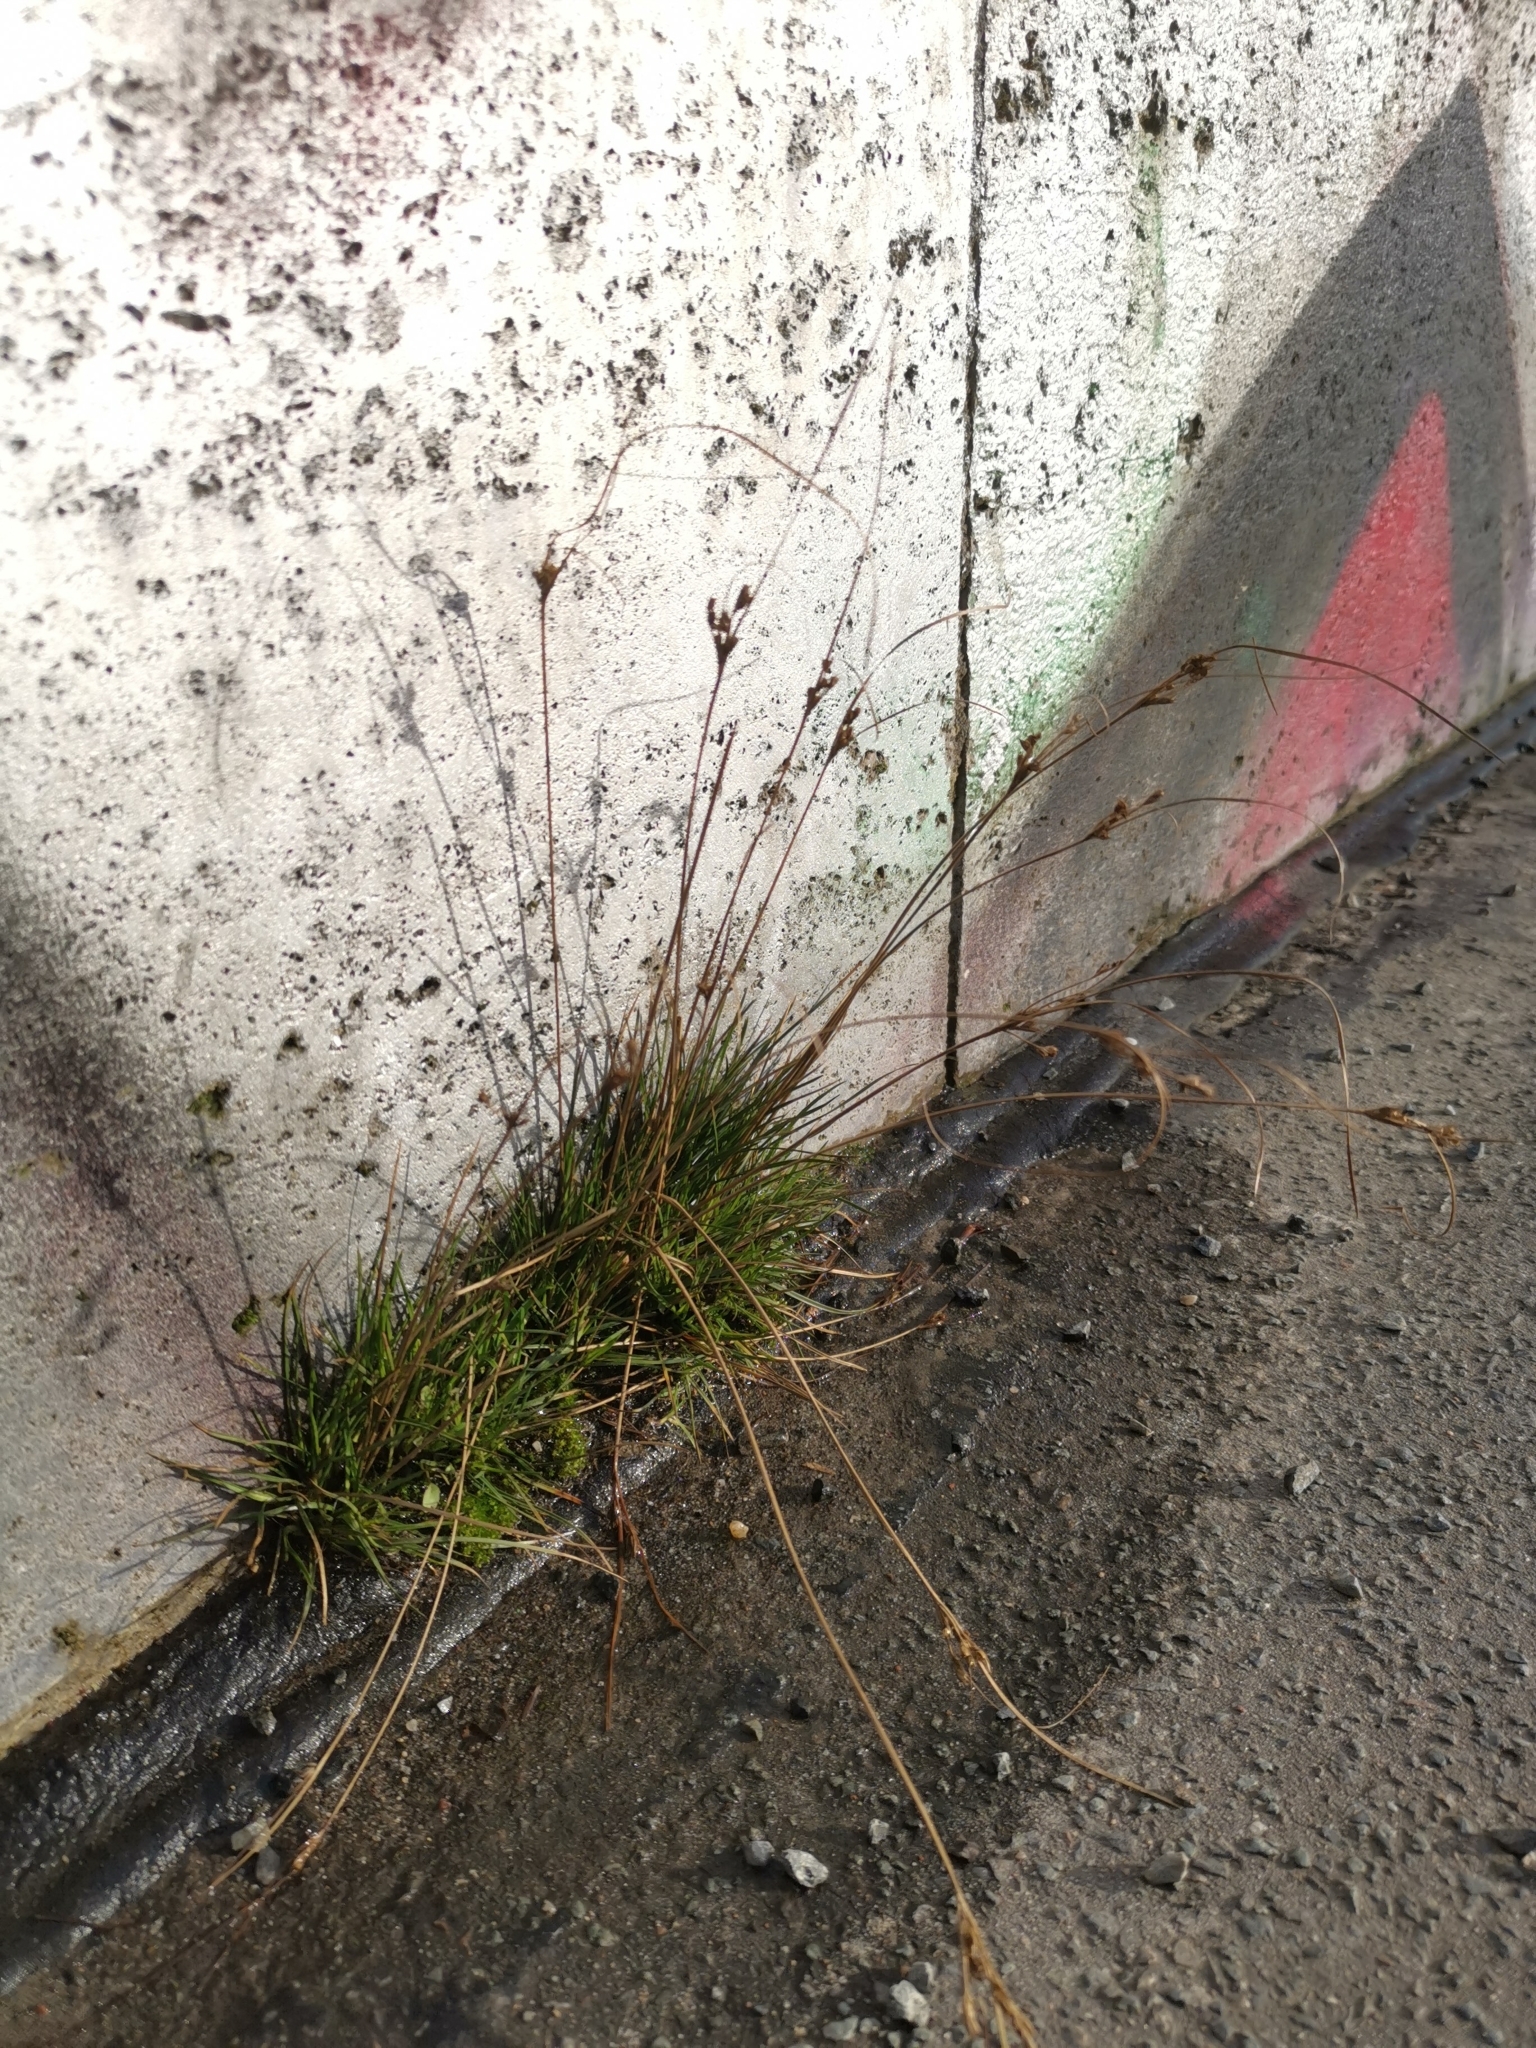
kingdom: Plantae
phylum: Tracheophyta
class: Liliopsida
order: Poales
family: Juncaceae
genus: Juncus
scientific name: Juncus tenuis
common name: Slender rush
